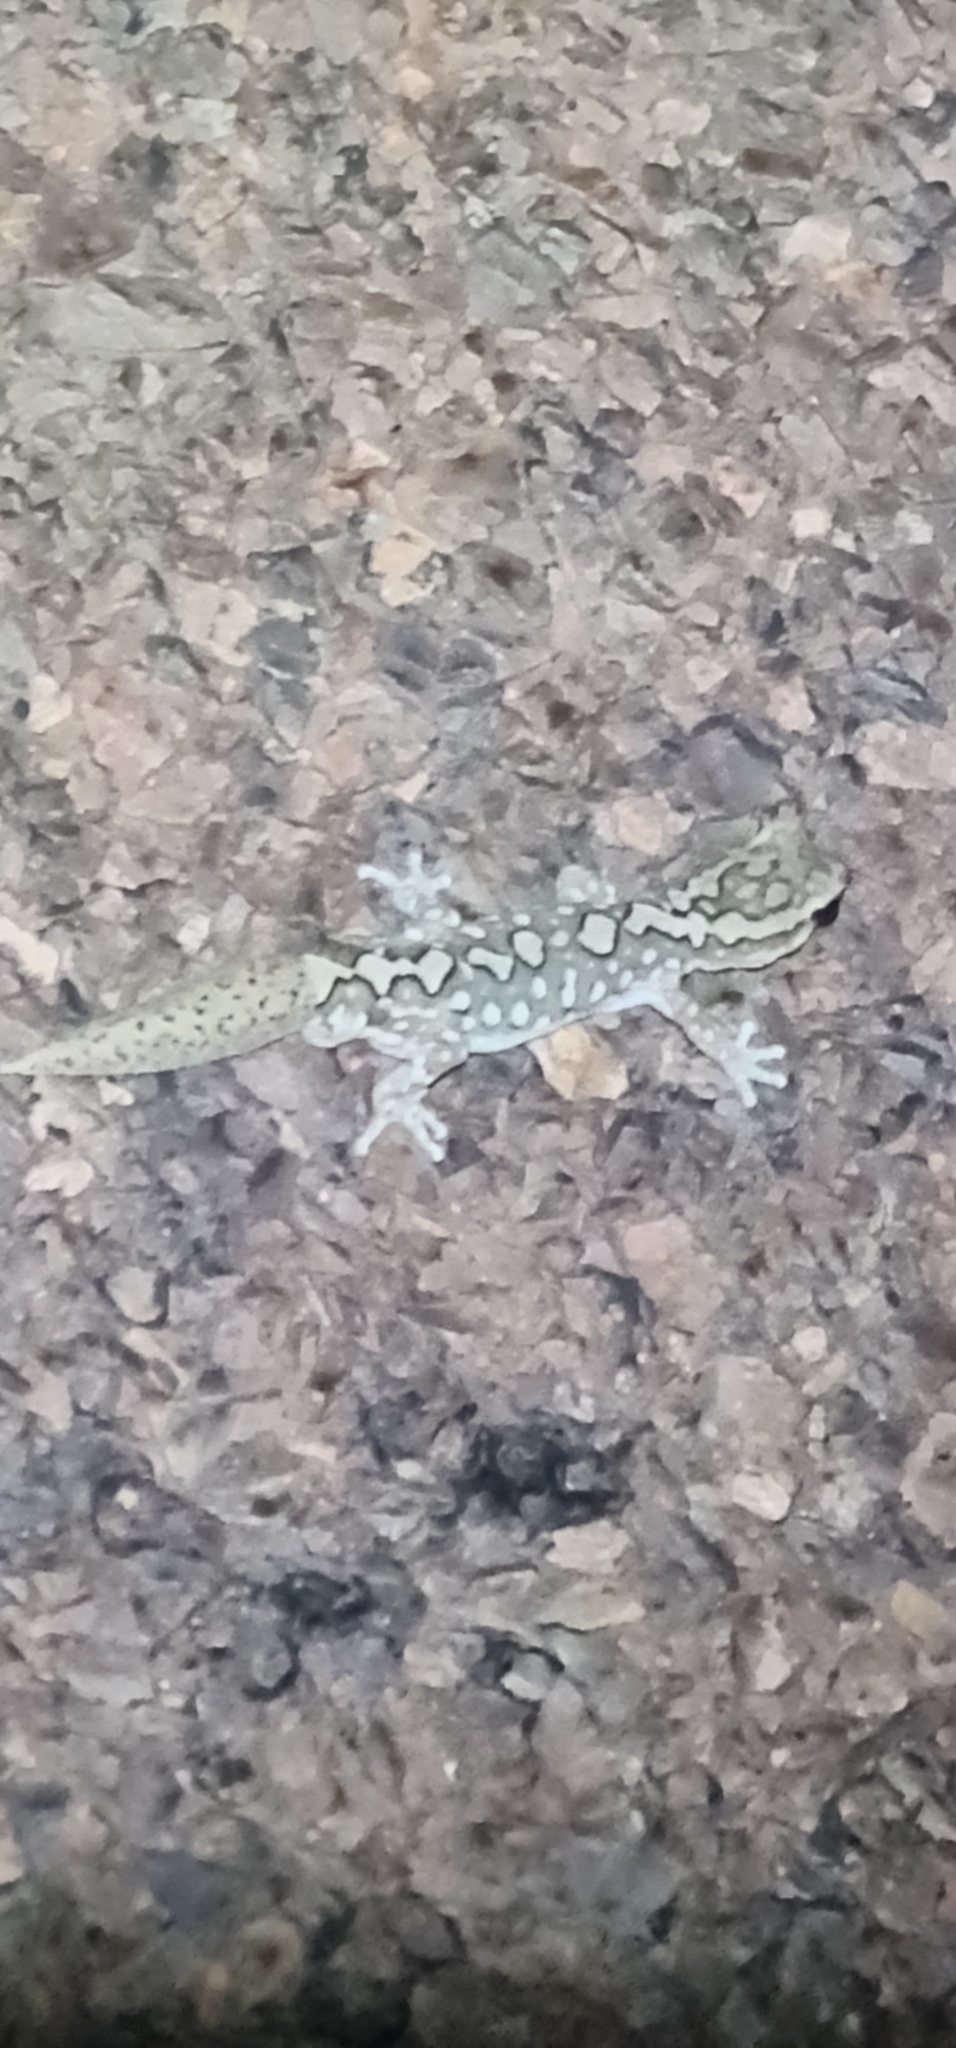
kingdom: Animalia
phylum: Chordata
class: Squamata
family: Diplodactylidae
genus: Diplodactylus
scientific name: Diplodactylus furcosus
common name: Ranges stone gecko
